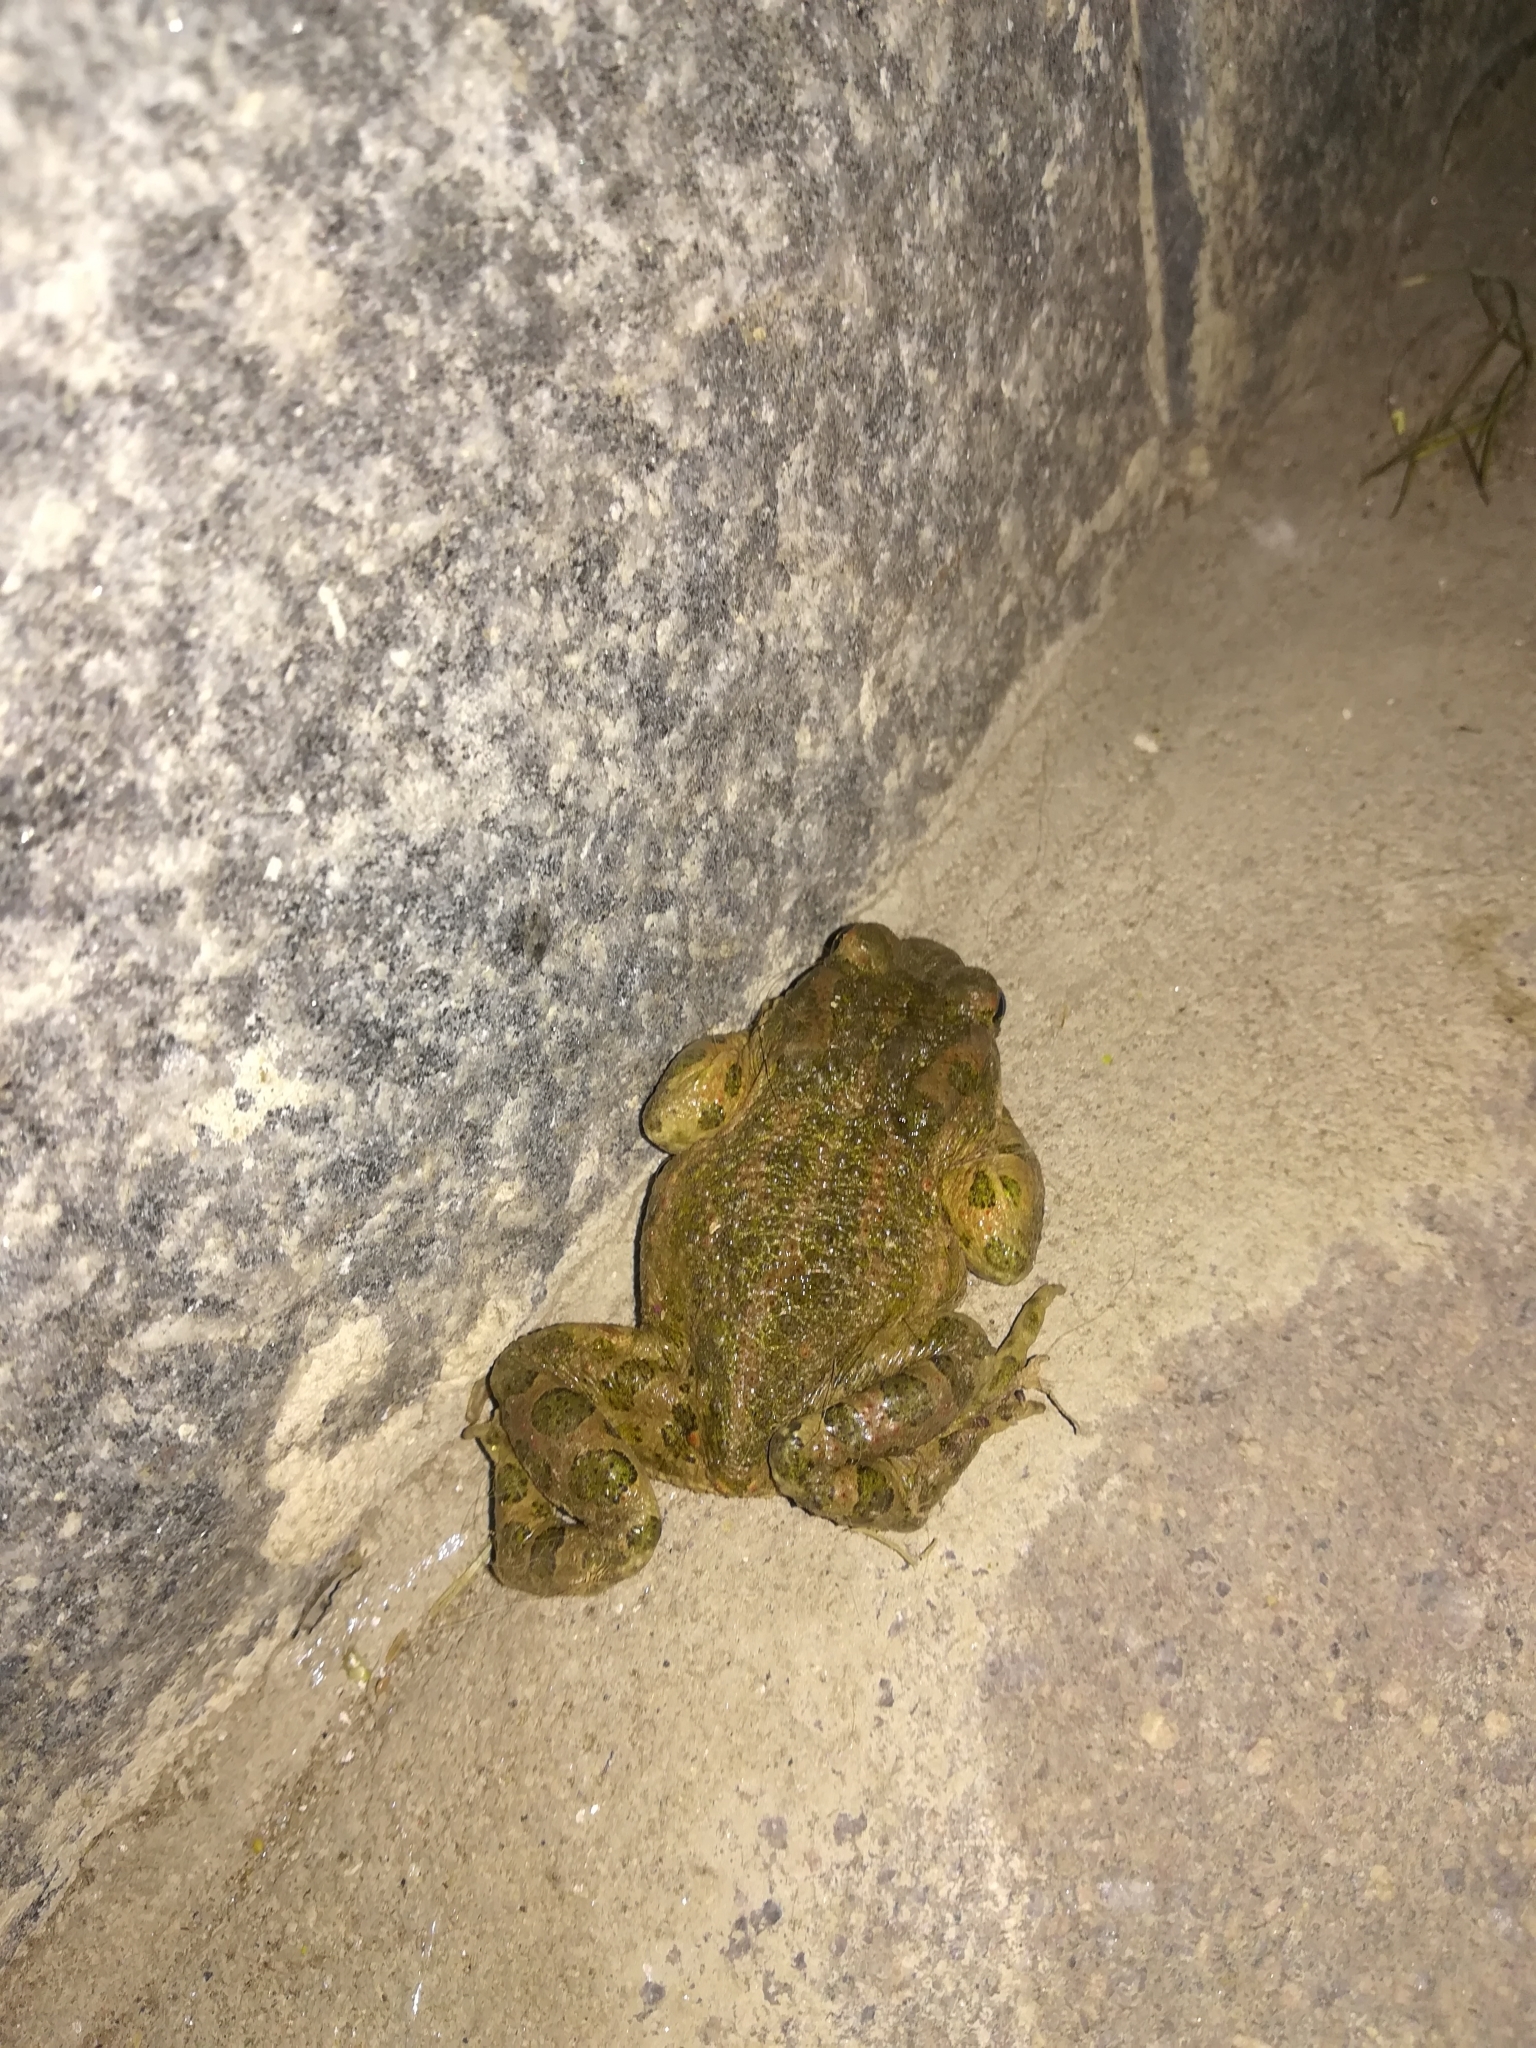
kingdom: Animalia
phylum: Chordata
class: Amphibia
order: Anura
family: Bufonidae
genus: Bufotes
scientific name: Bufotes viridis
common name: European green toad
